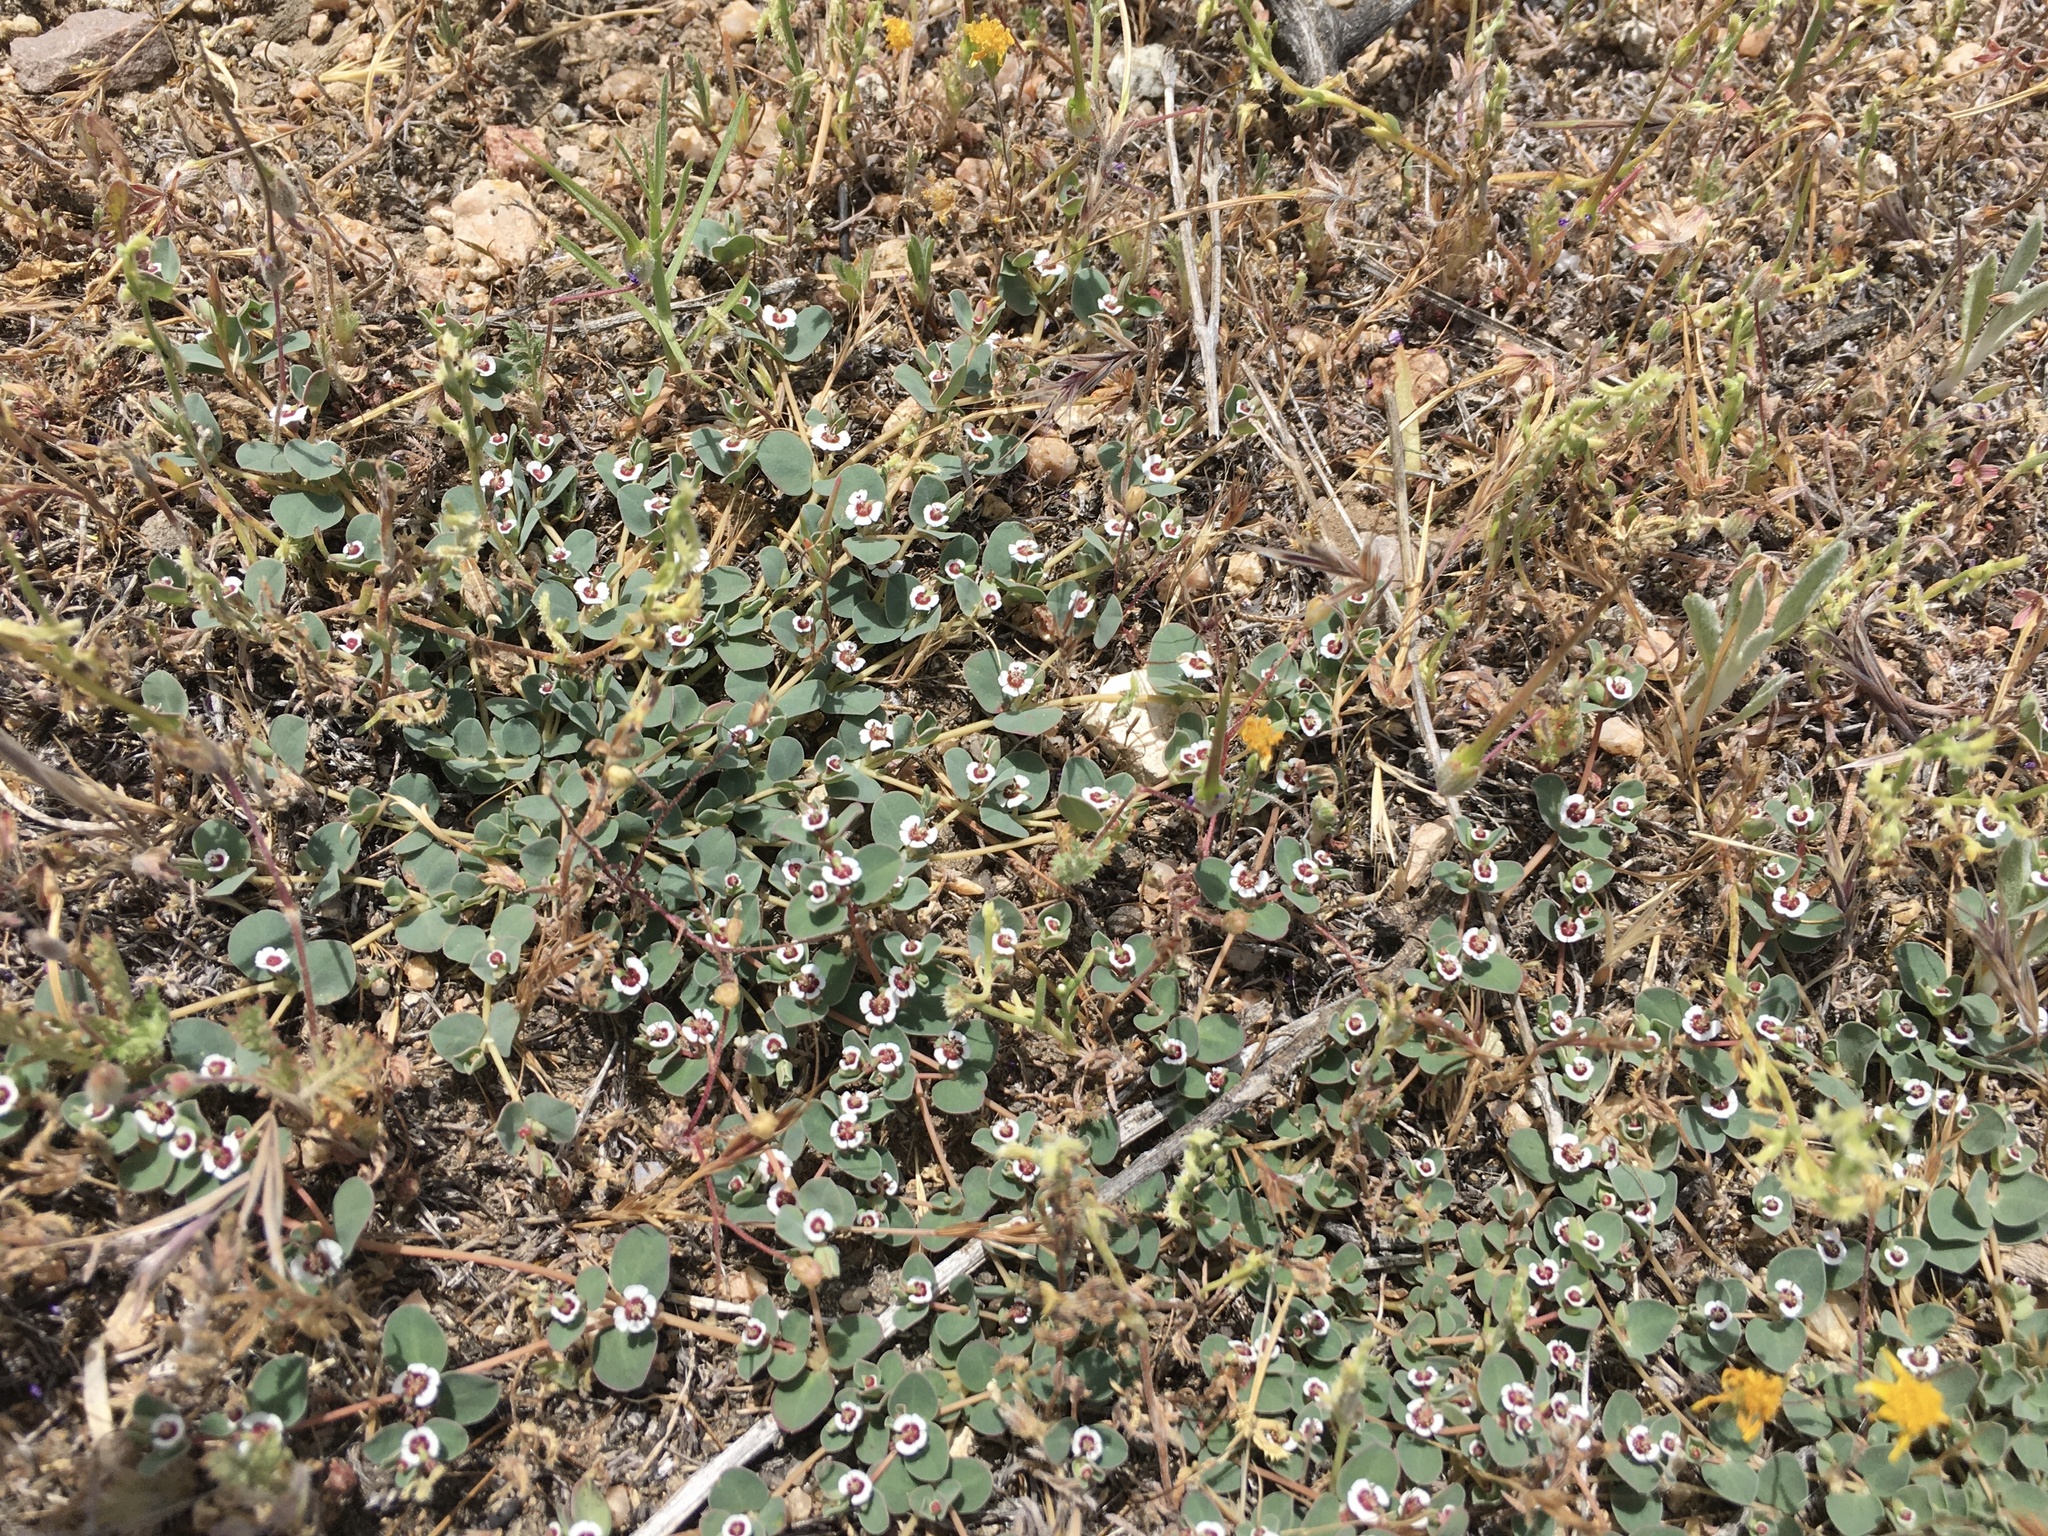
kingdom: Plantae
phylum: Tracheophyta
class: Magnoliopsida
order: Malpighiales
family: Euphorbiaceae
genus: Euphorbia
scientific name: Euphorbia albomarginata
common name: Whitemargin sandmat
